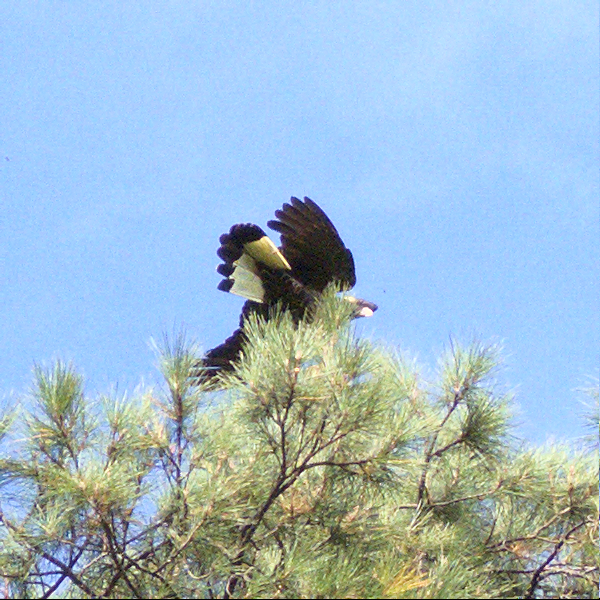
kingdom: Animalia
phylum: Chordata
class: Aves
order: Psittaciformes
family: Cacatuidae
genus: Zanda
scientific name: Zanda funerea
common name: Yellow-tailed black-cockatoo
